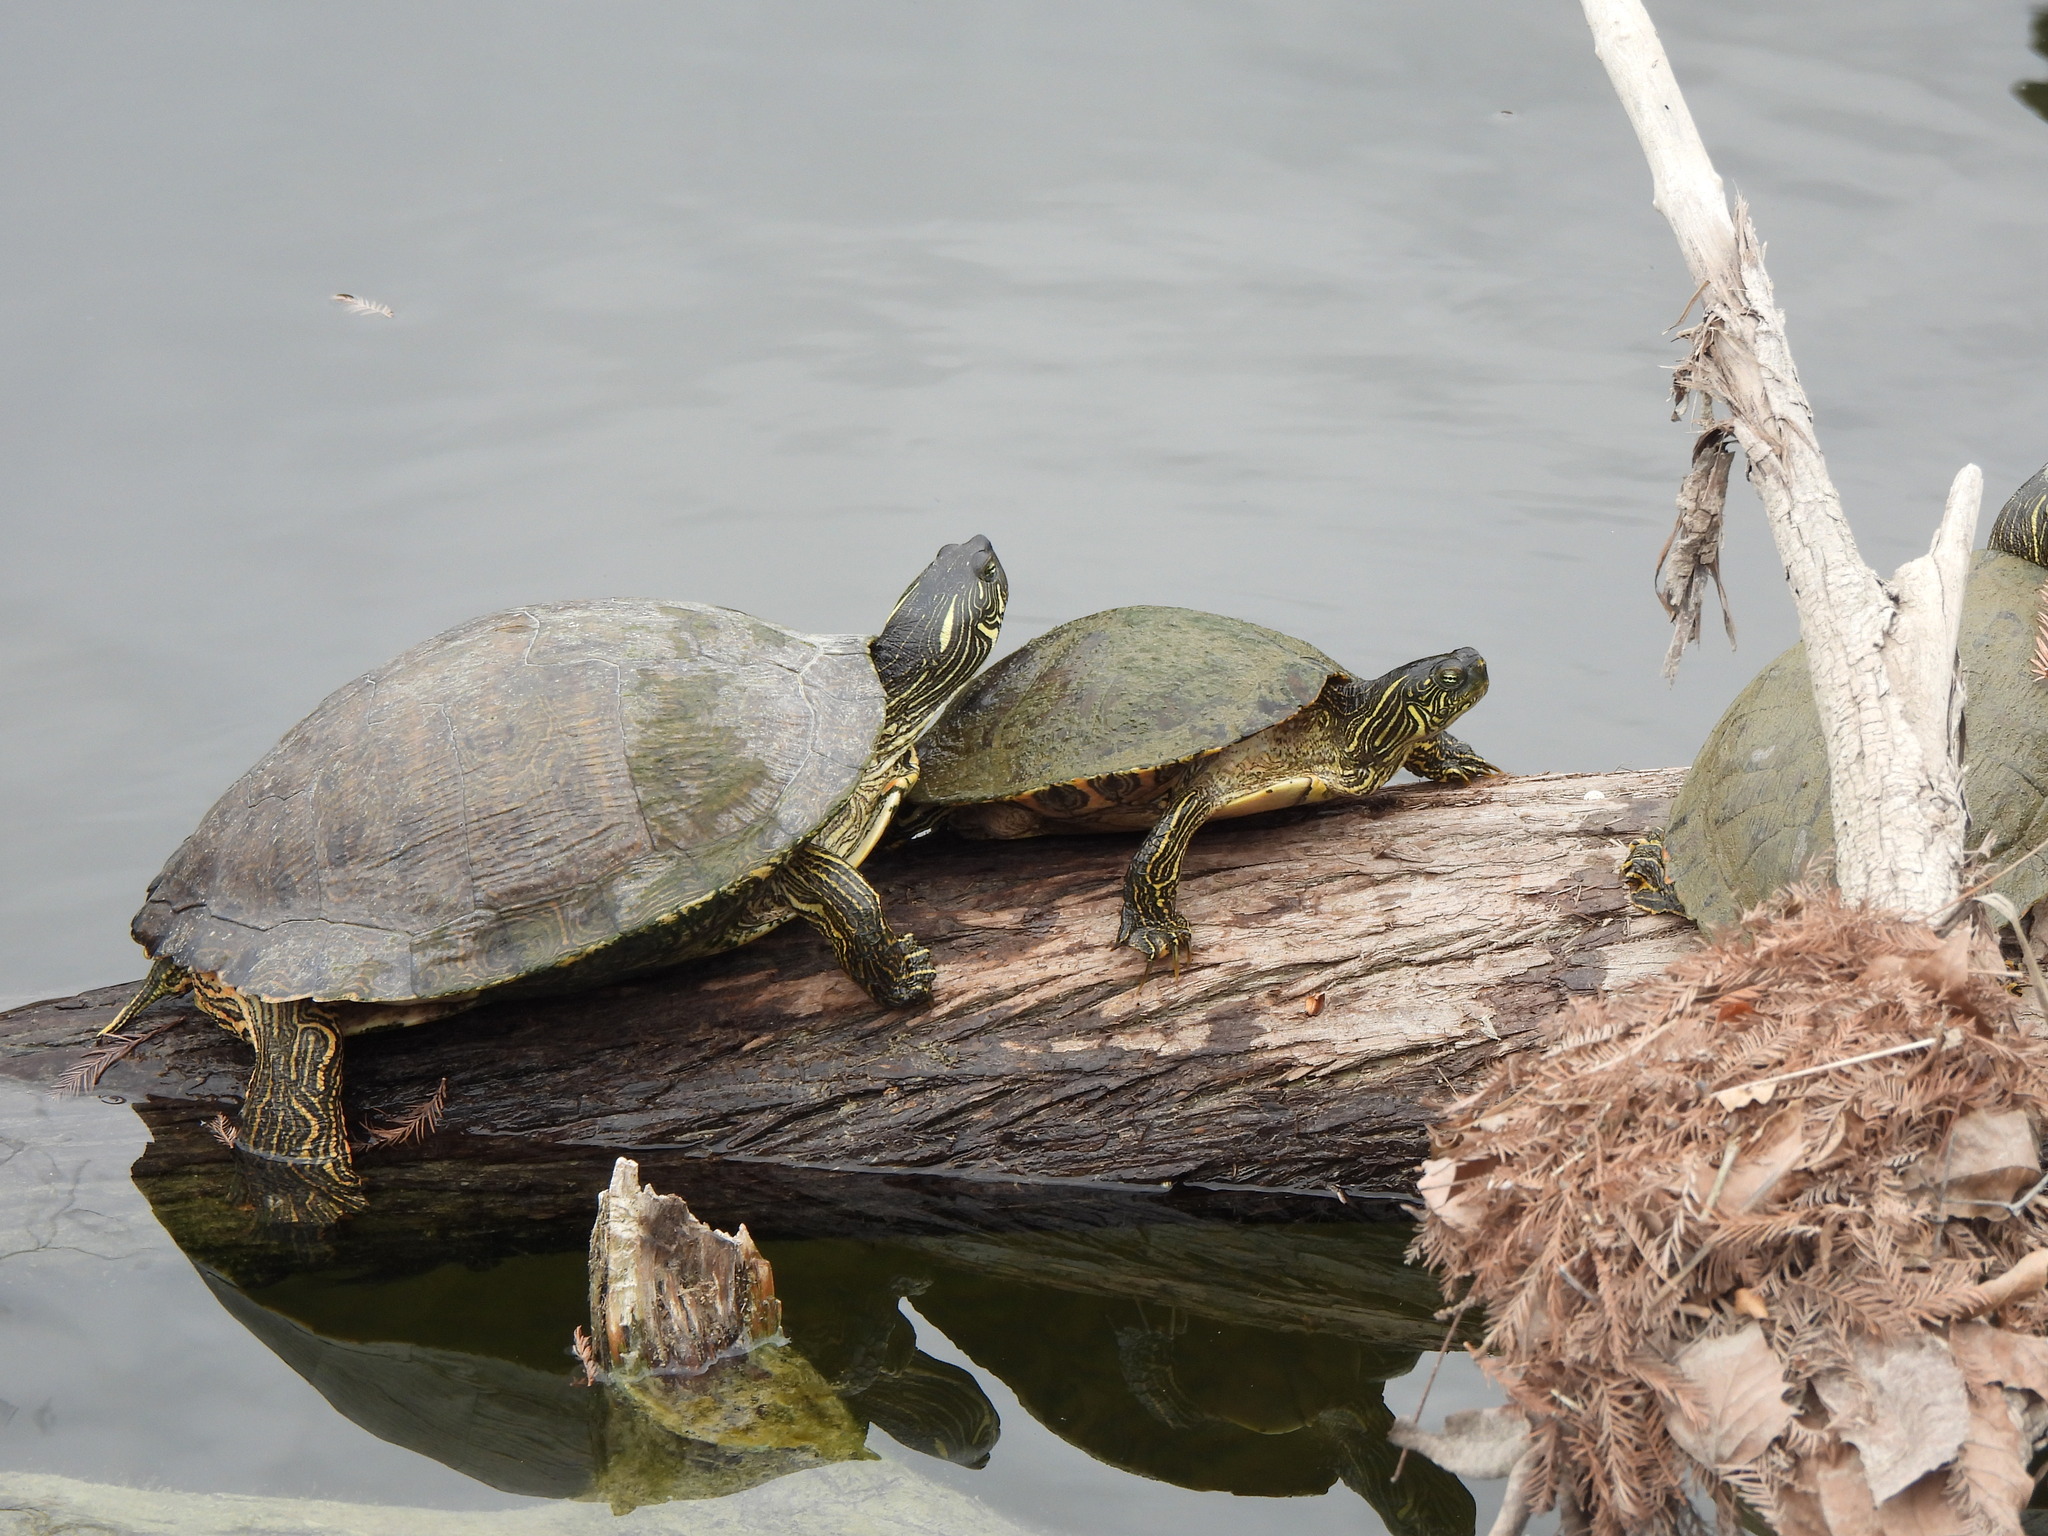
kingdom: Animalia
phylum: Chordata
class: Testudines
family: Emydidae
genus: Pseudemys
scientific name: Pseudemys texana
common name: Texas river cooter
